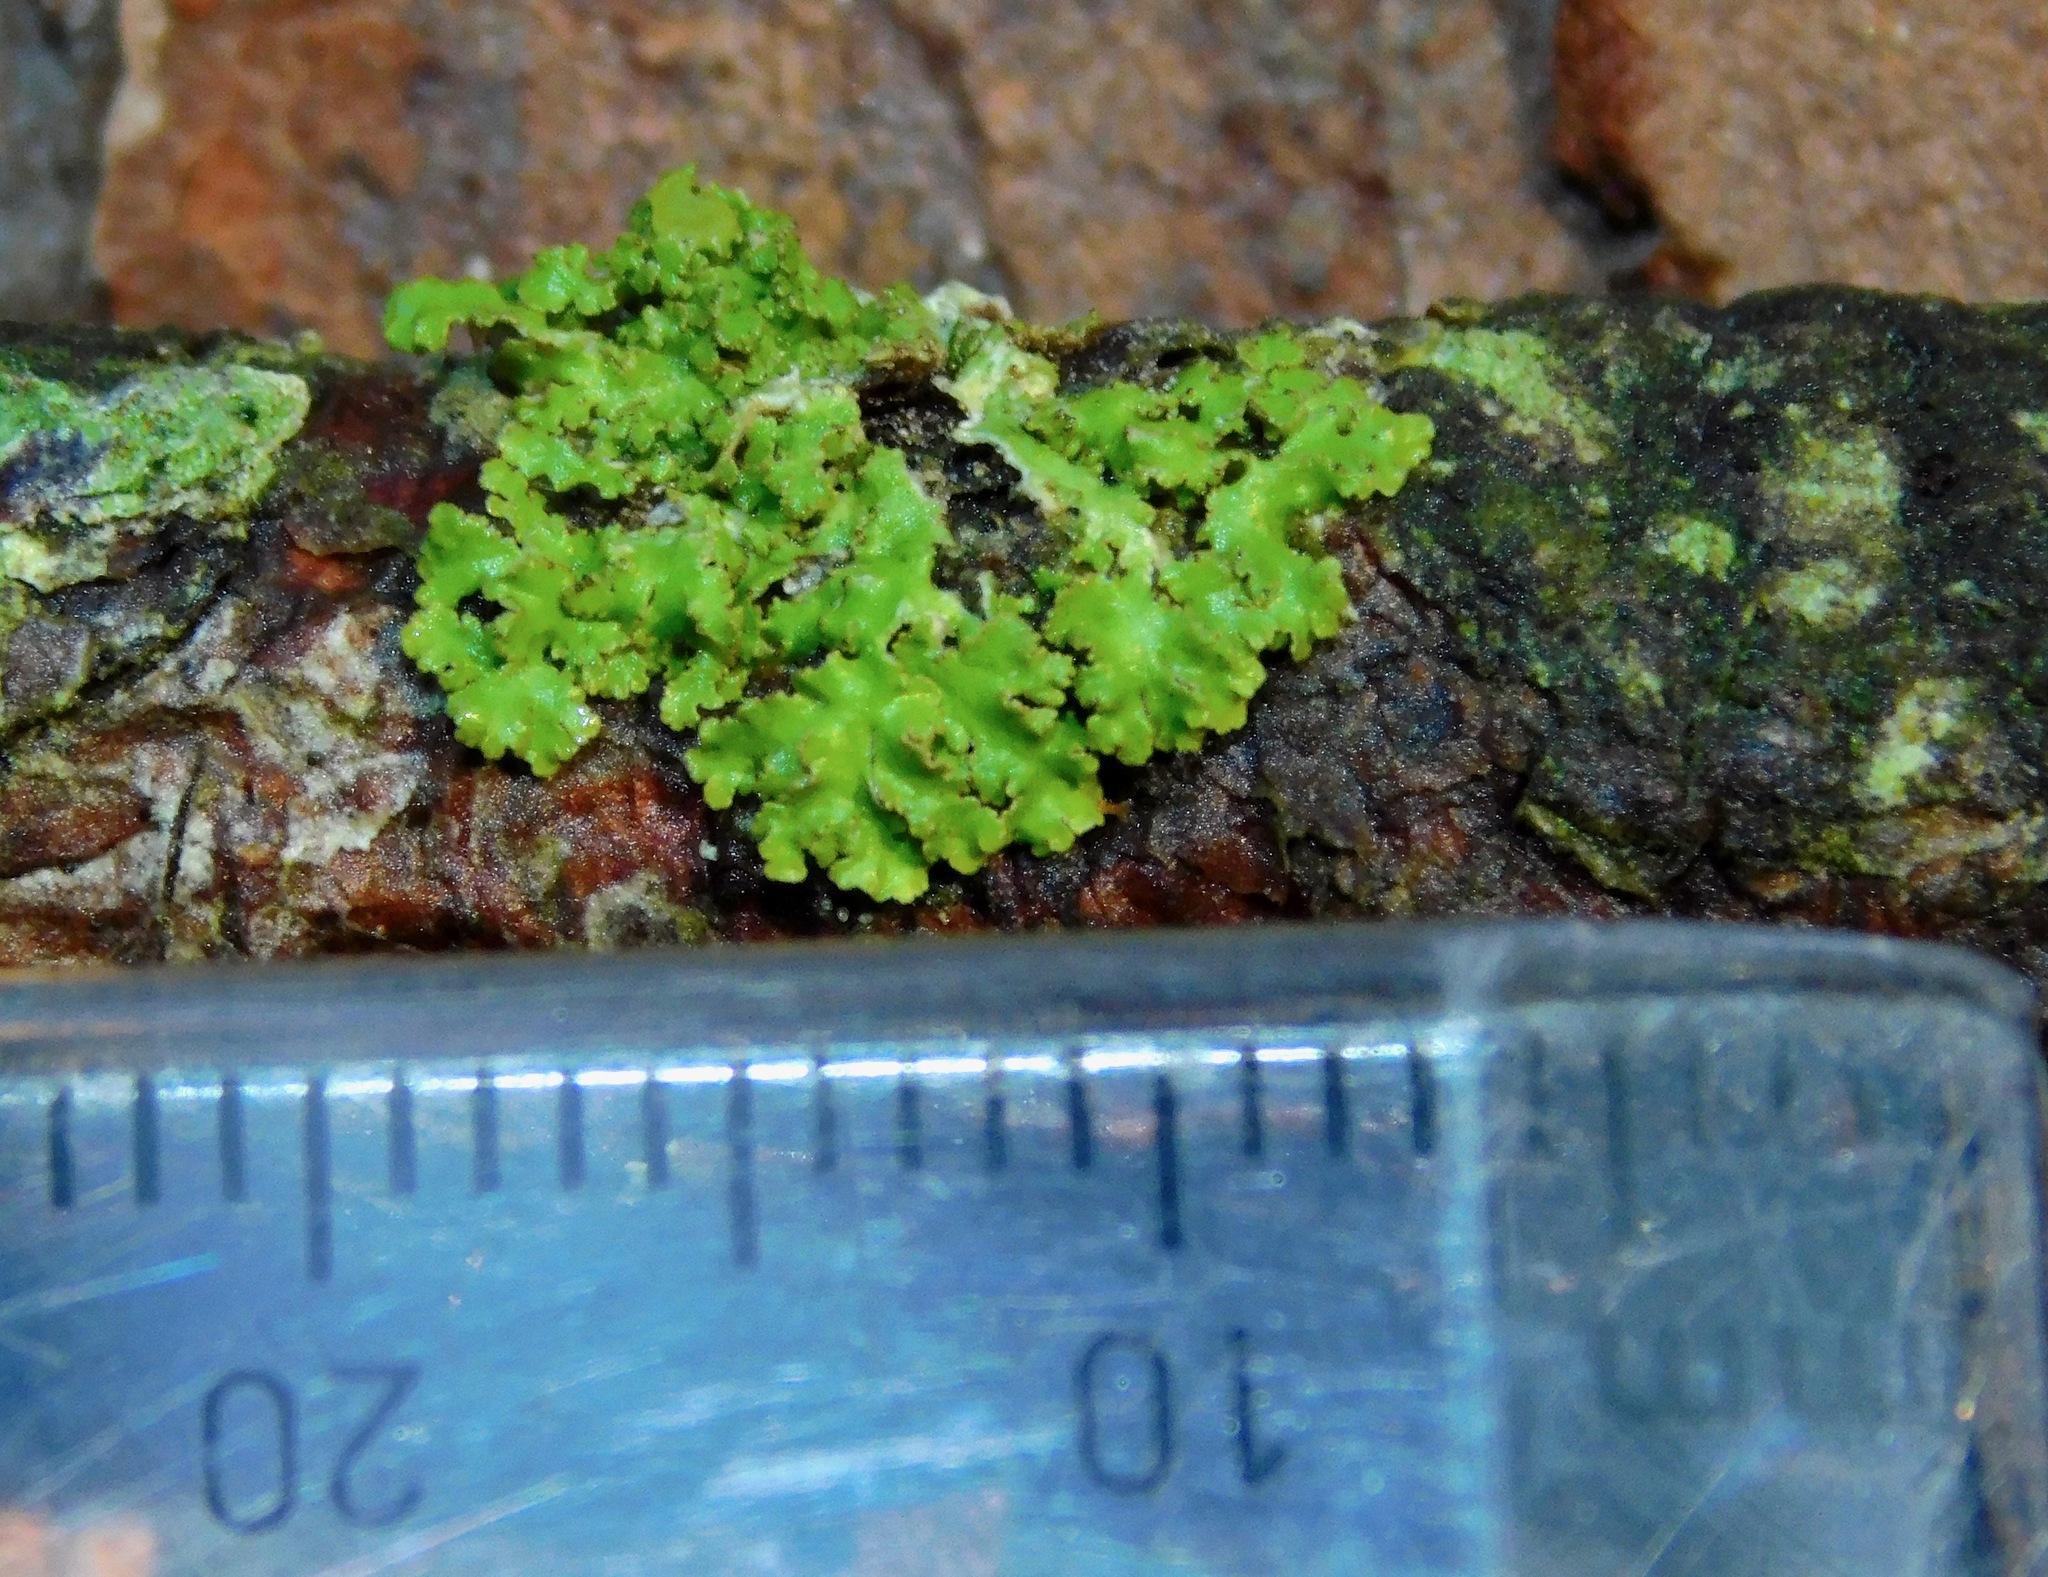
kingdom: Fungi
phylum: Ascomycota
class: Lecanoromycetes
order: Lecanorales
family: Parmeliaceae
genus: Vulpicida
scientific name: Vulpicida viridis
